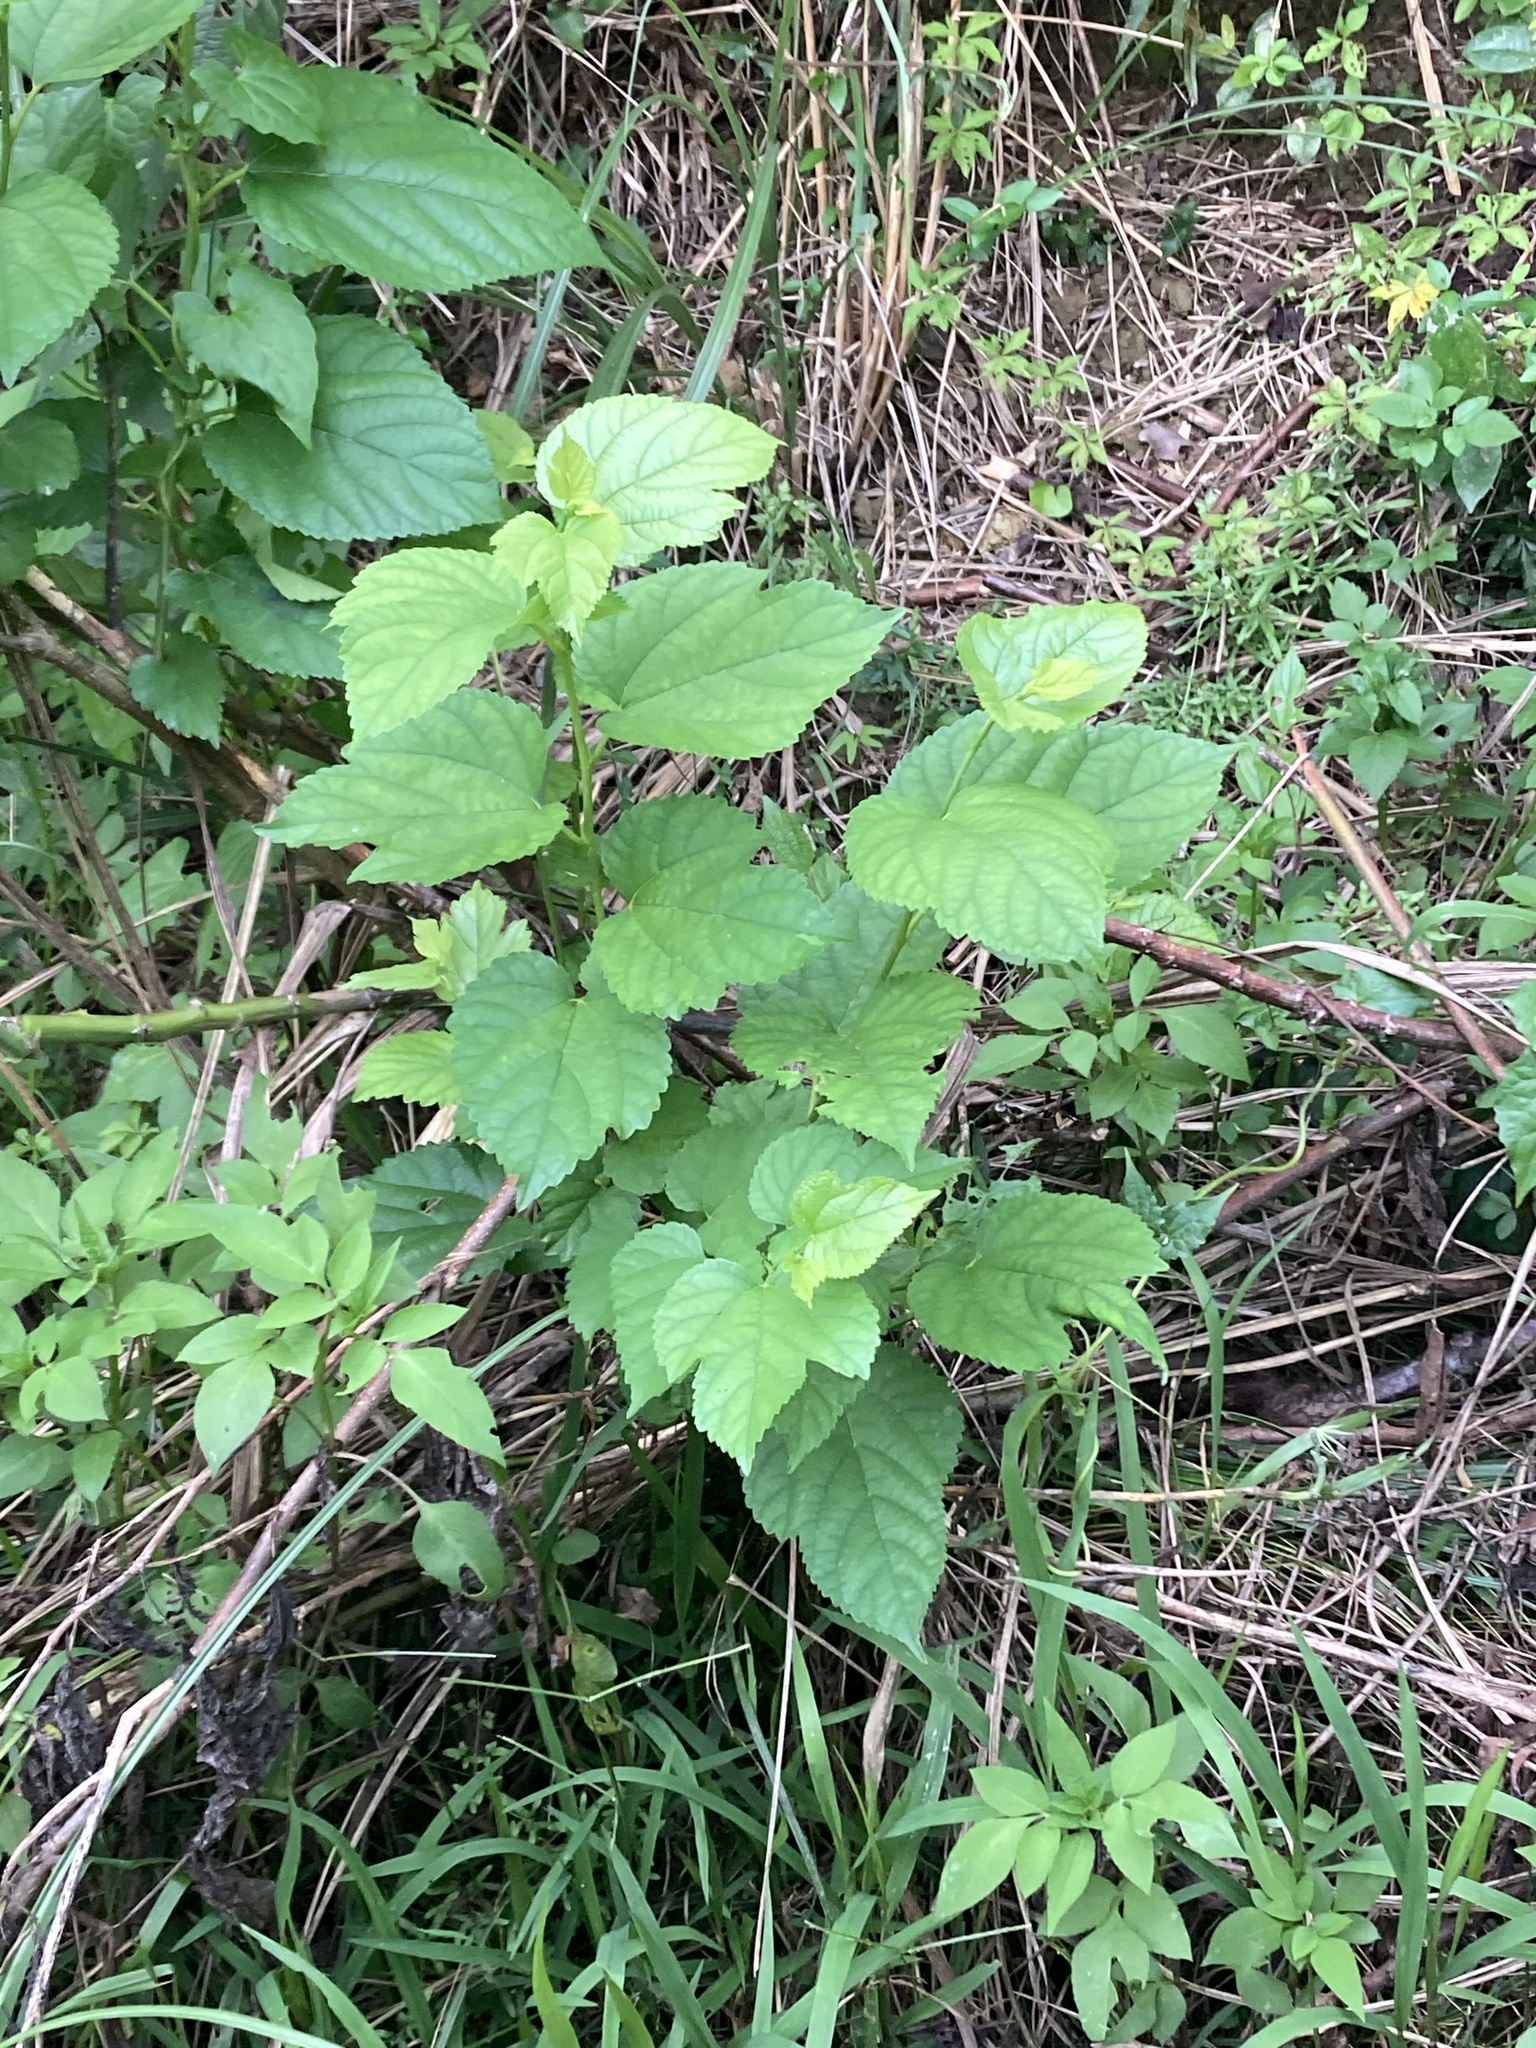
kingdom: Plantae
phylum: Tracheophyta
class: Magnoliopsida
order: Rosales
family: Moraceae
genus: Morus
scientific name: Morus indica
